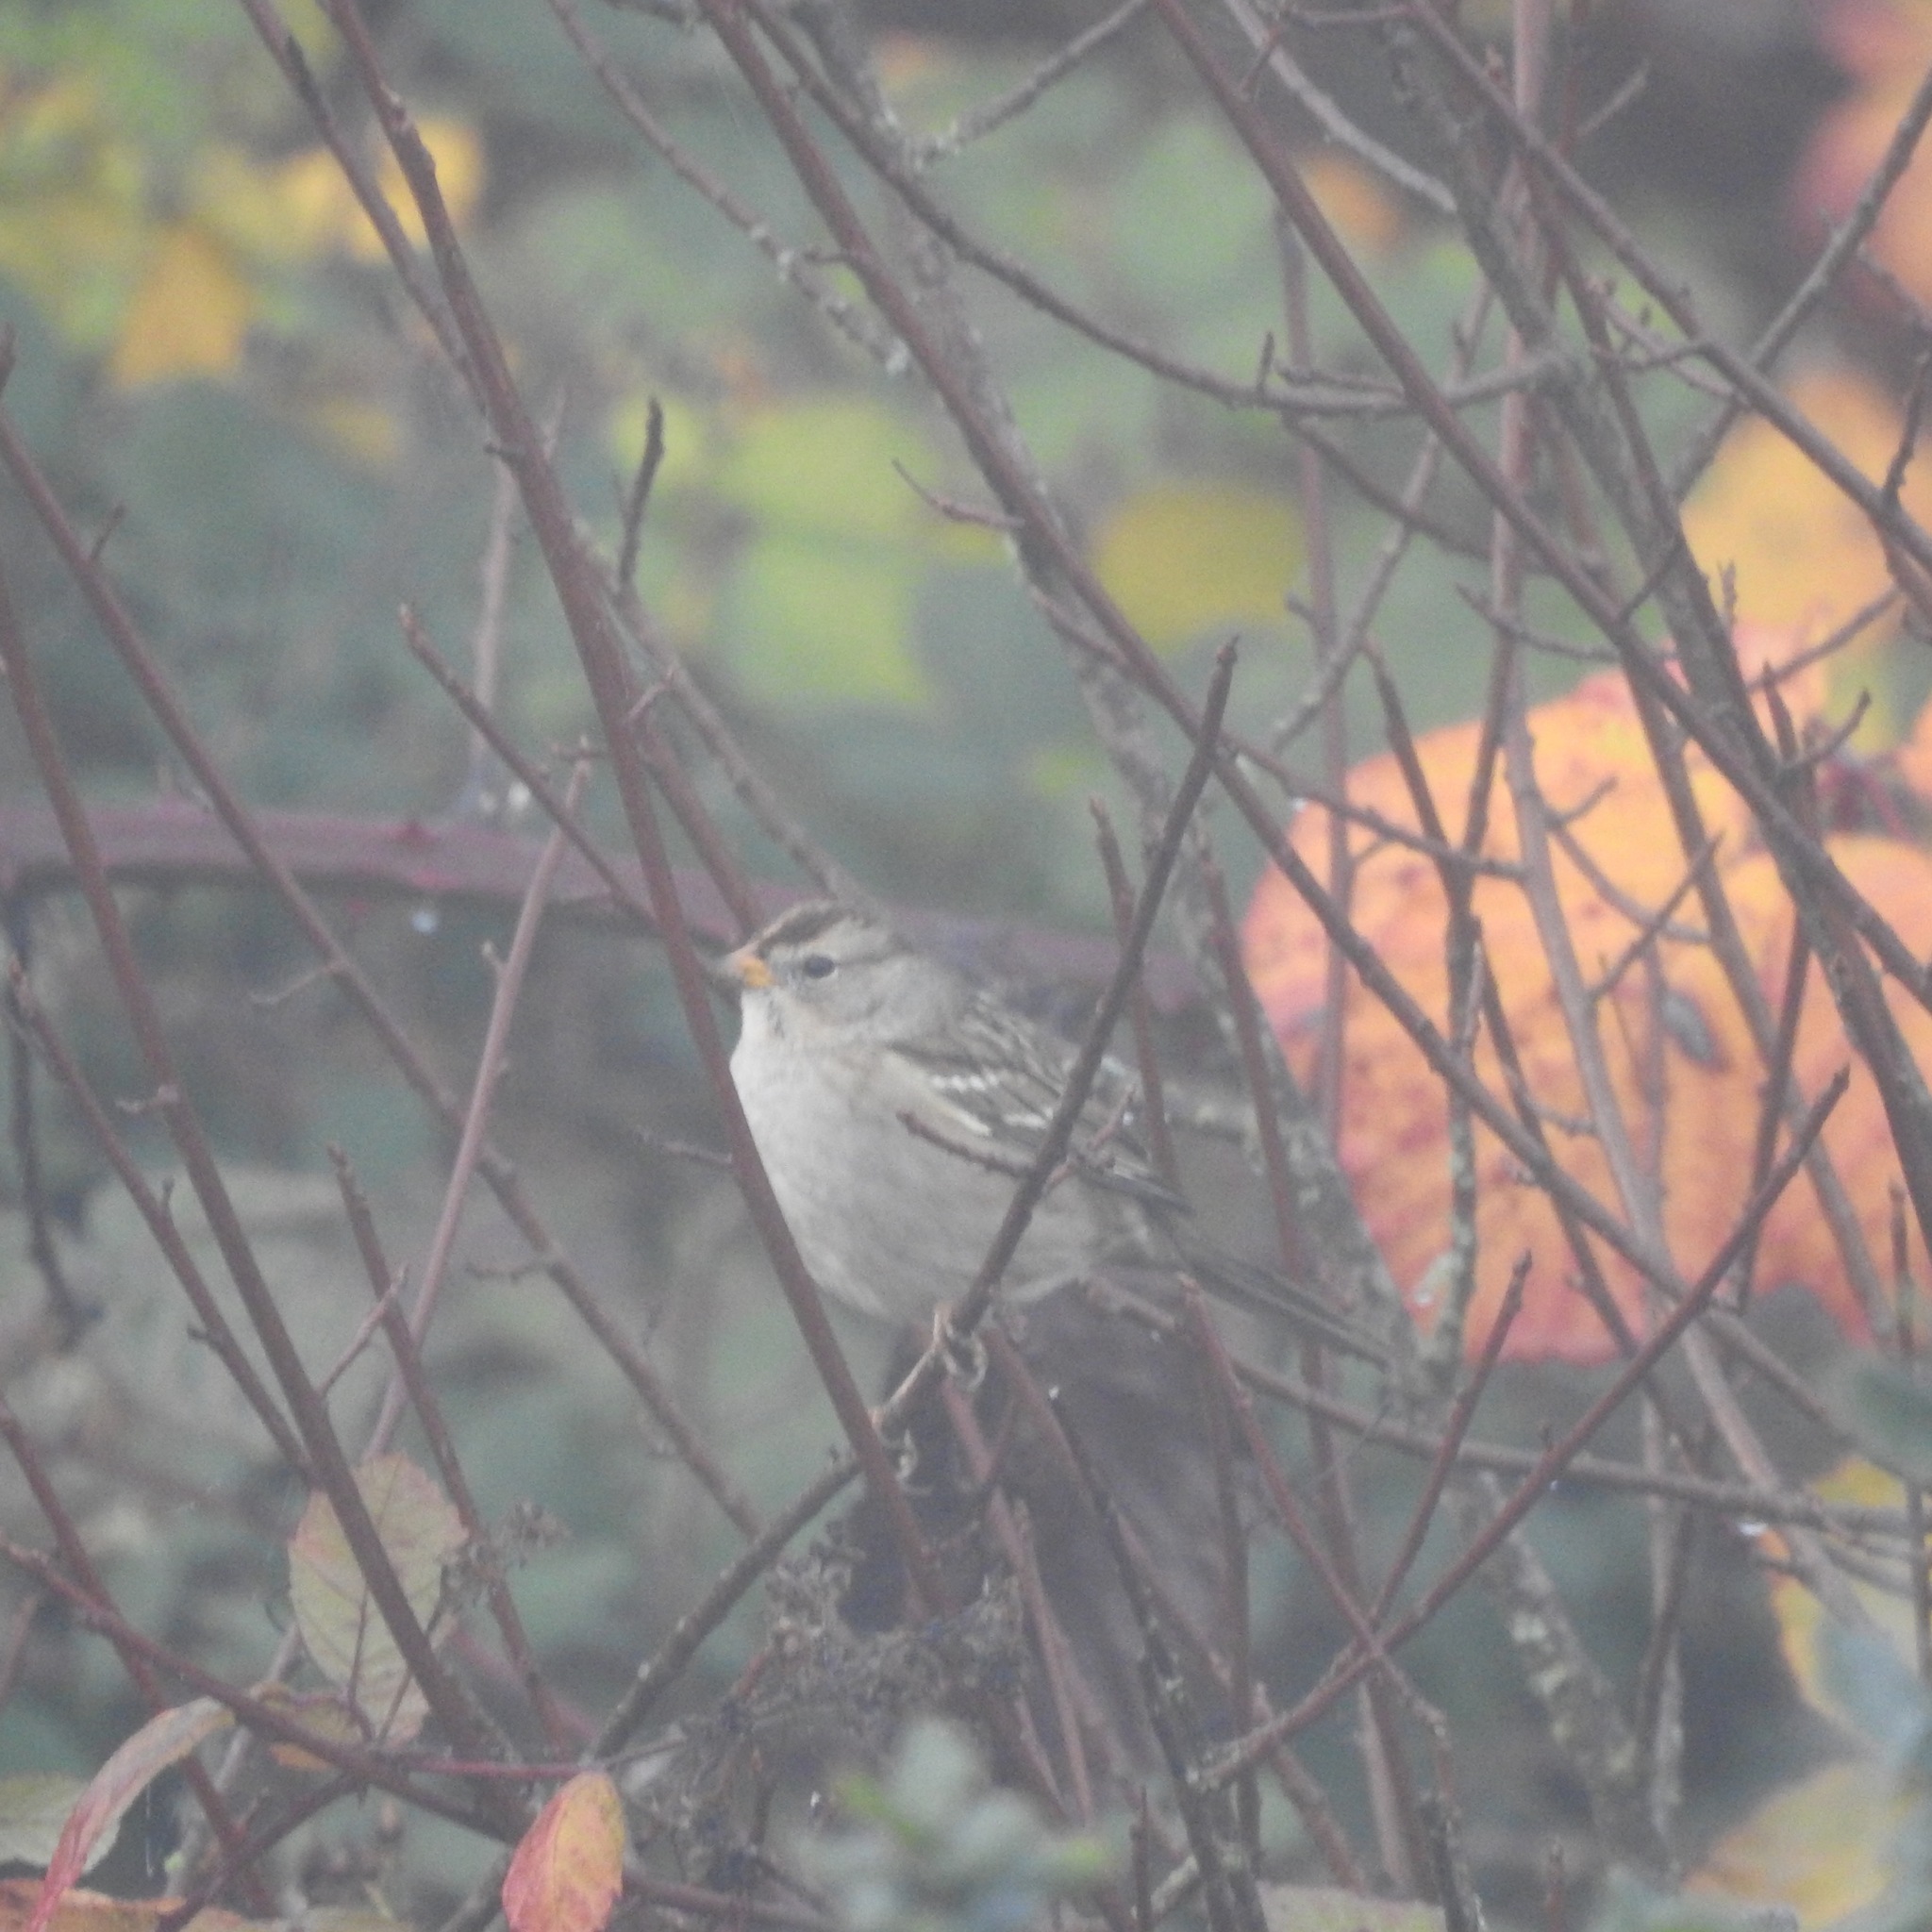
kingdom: Animalia
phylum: Chordata
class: Aves
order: Passeriformes
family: Passerellidae
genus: Zonotrichia
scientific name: Zonotrichia leucophrys
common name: White-crowned sparrow
